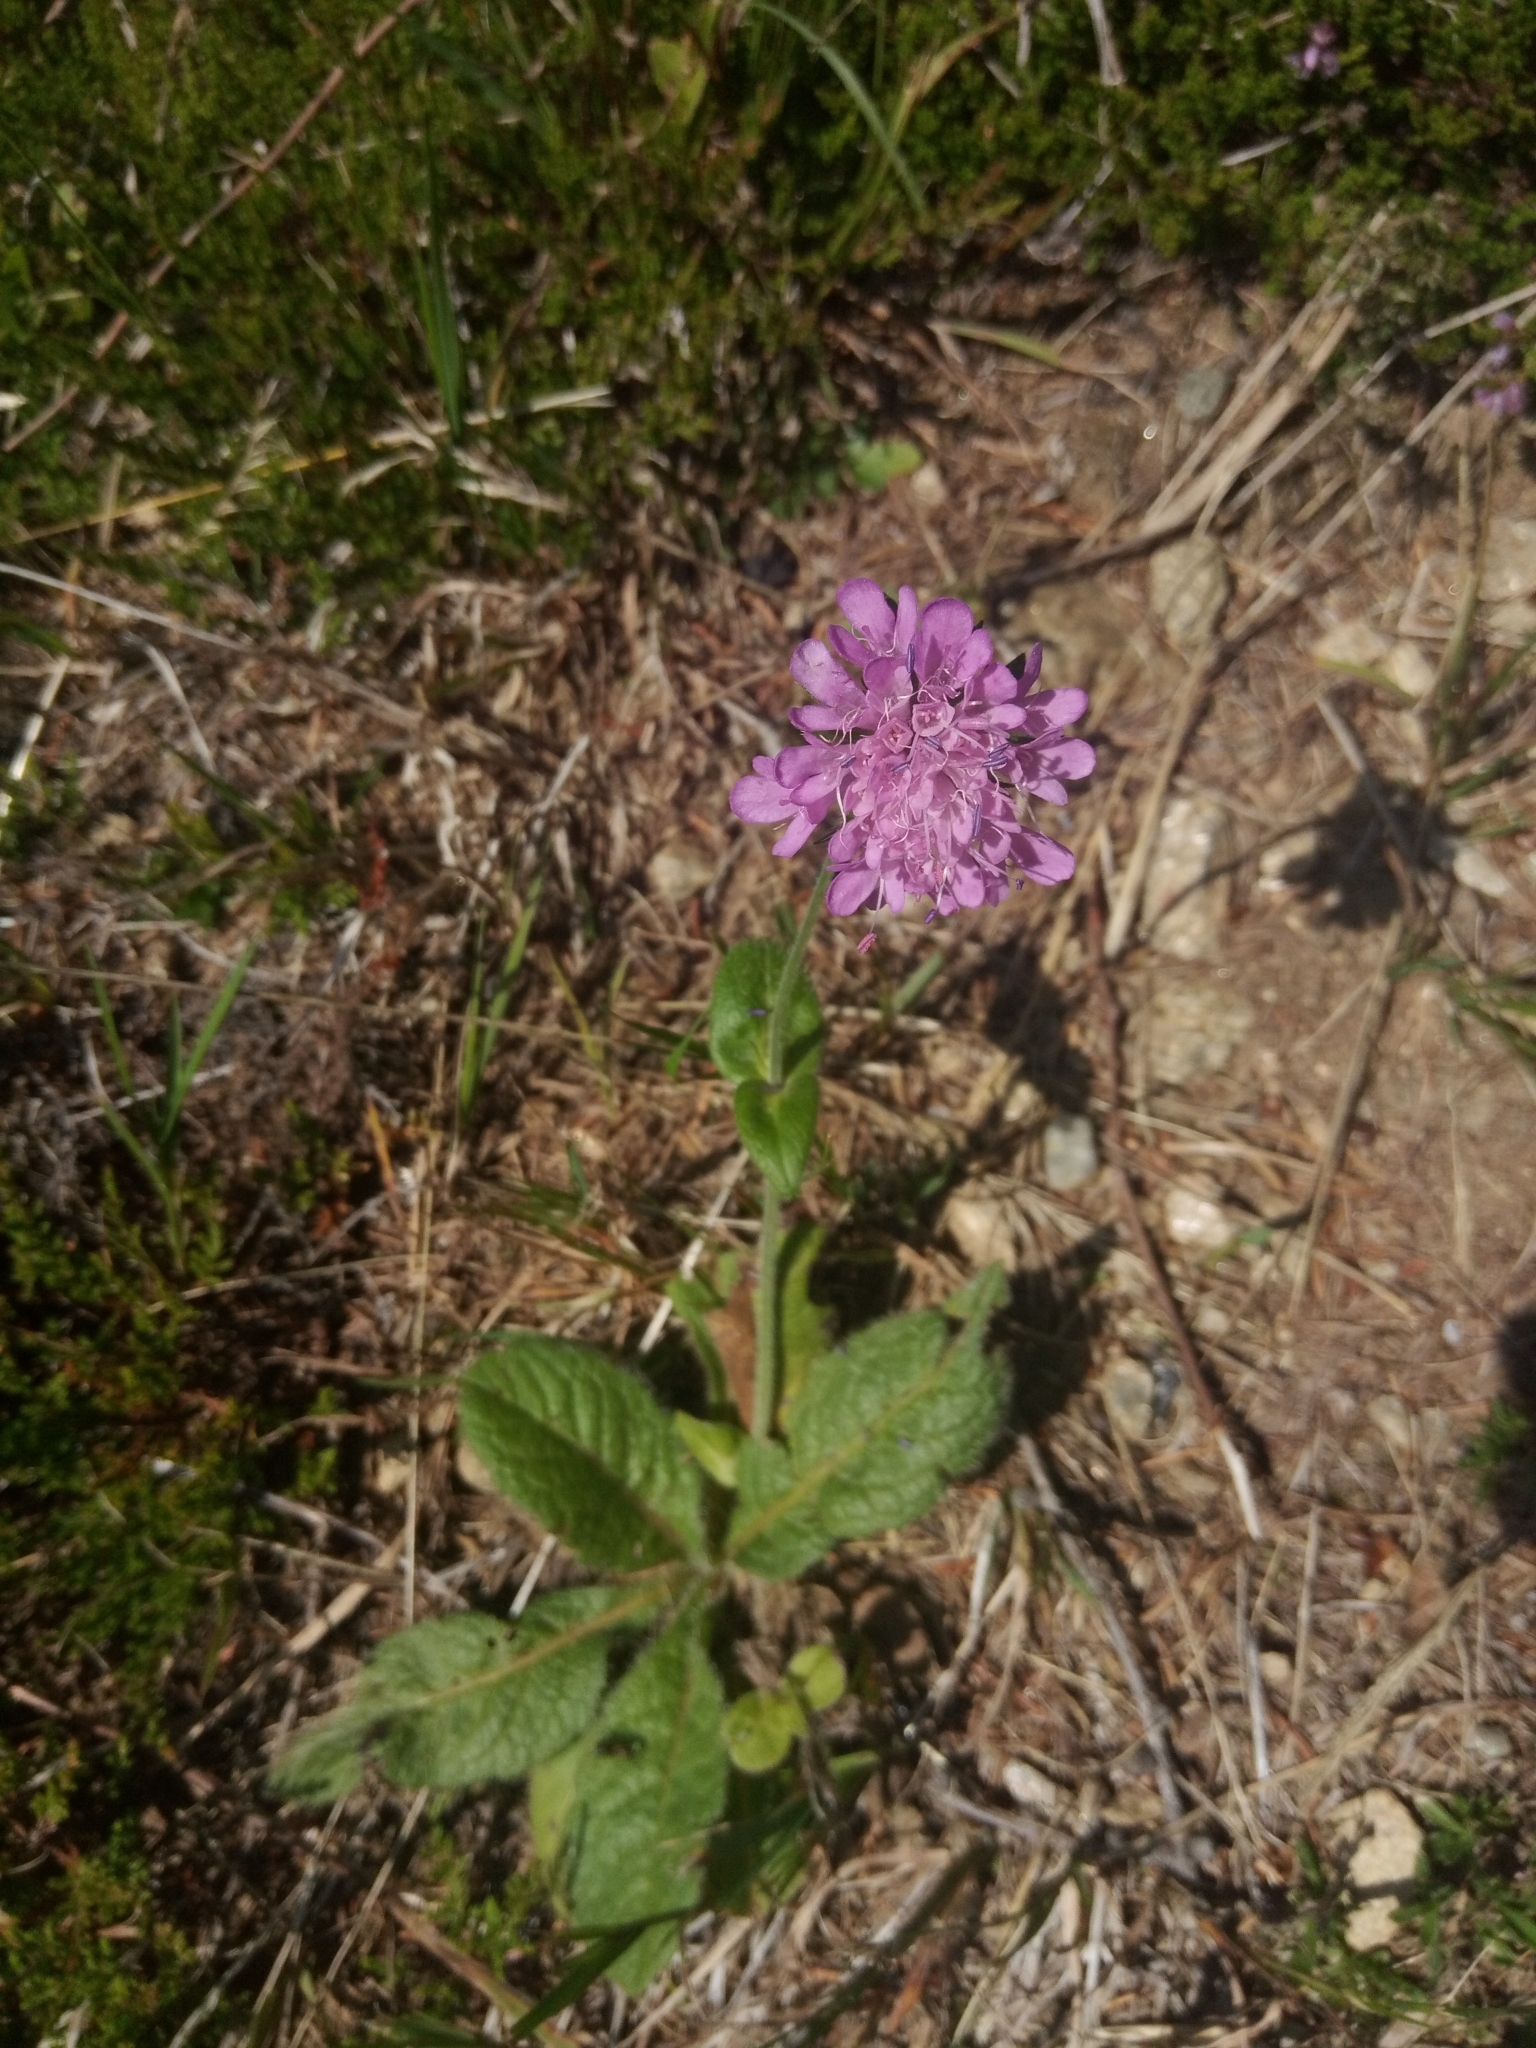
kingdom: Plantae
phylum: Tracheophyta
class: Magnoliopsida
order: Dipsacales
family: Caprifoliaceae
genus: Knautia
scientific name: Knautia dipsacifolia
